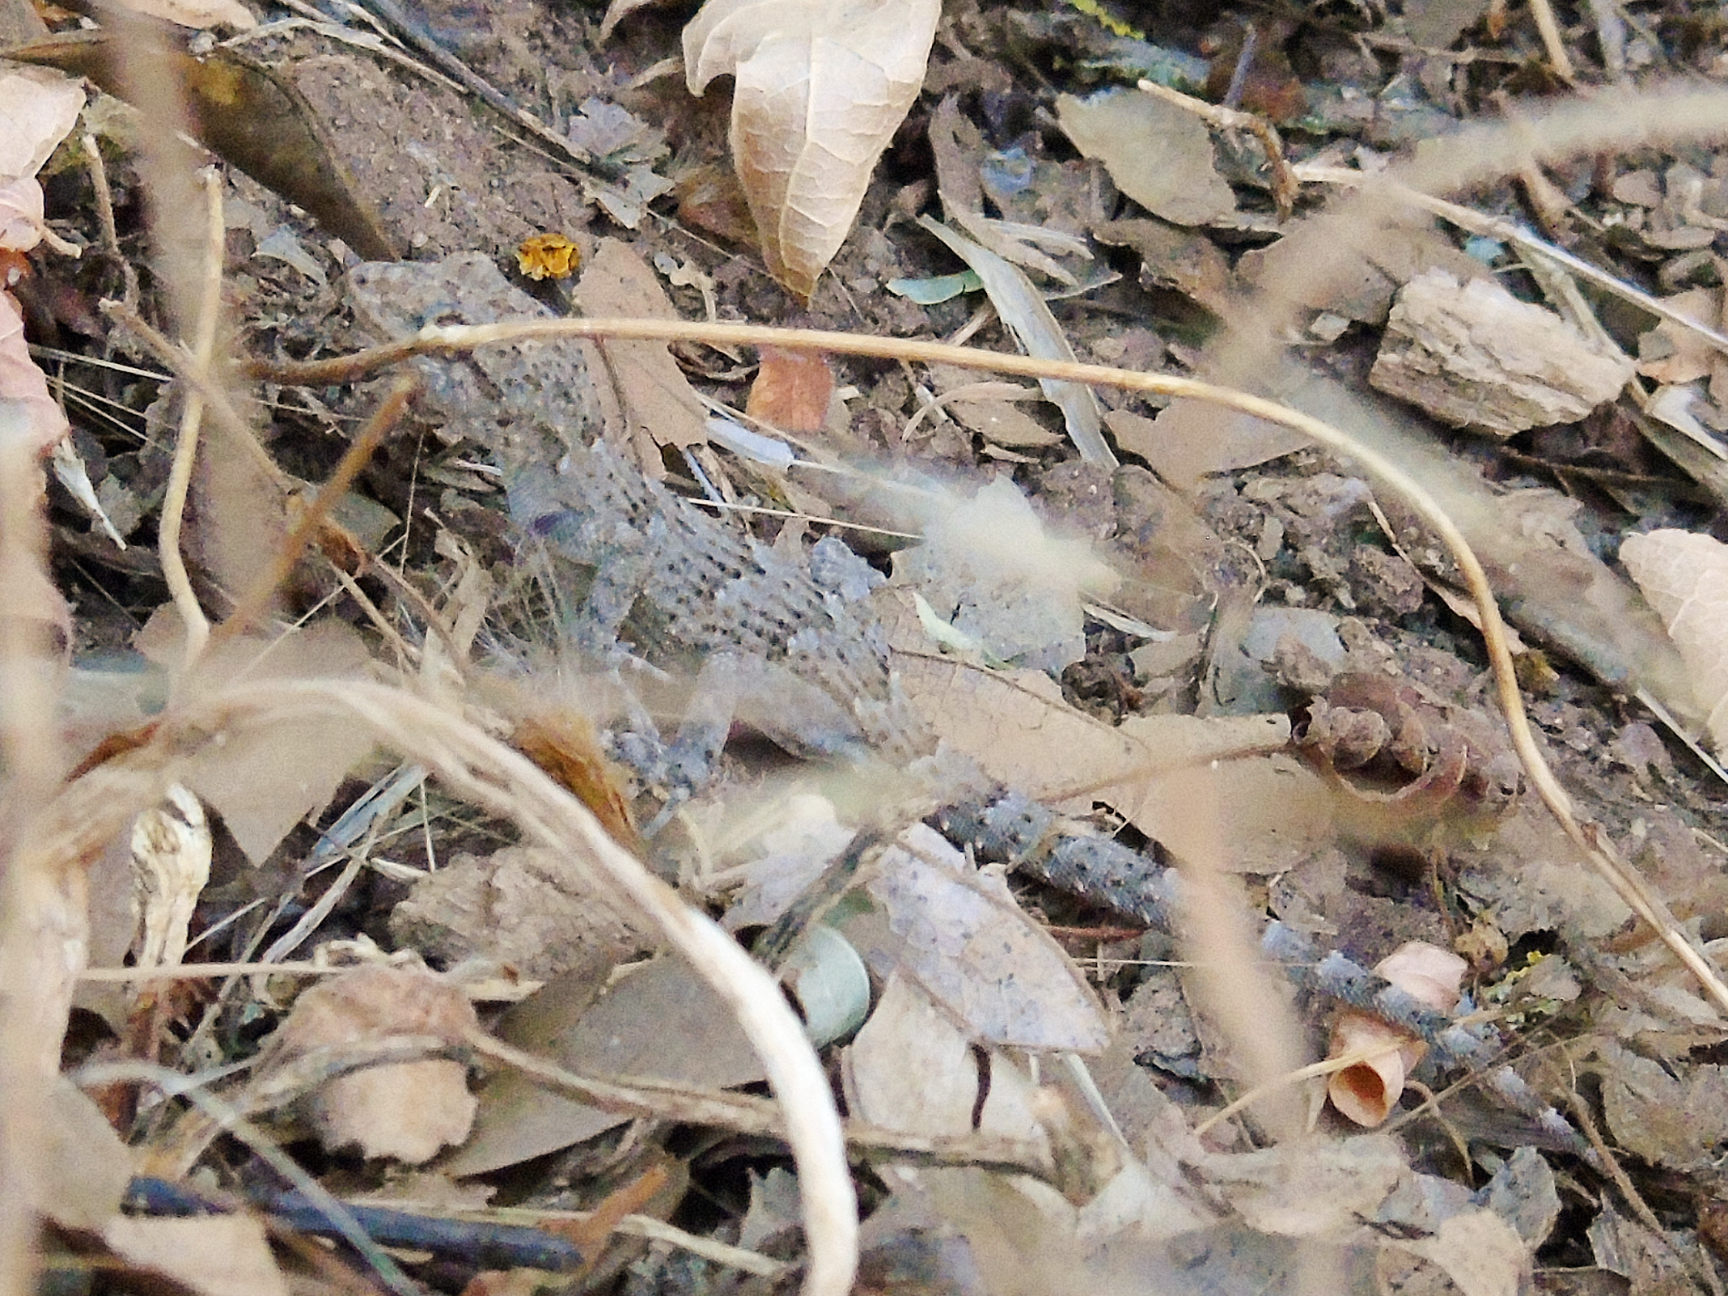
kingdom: Animalia
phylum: Chordata
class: Squamata
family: Gekkonidae
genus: Mediodactylus
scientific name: Mediodactylus kotschyi
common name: Kotschy's gecko
